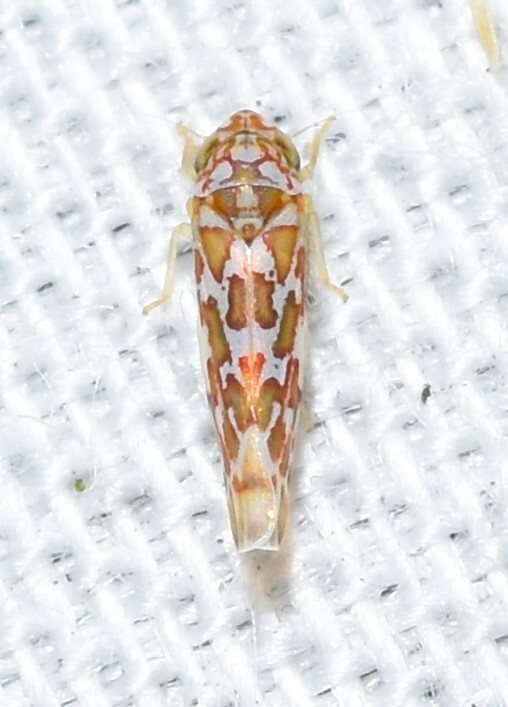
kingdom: Animalia
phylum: Arthropoda
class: Insecta
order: Hemiptera
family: Cicadellidae
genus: Tautoneura
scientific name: Tautoneura polymitusa
